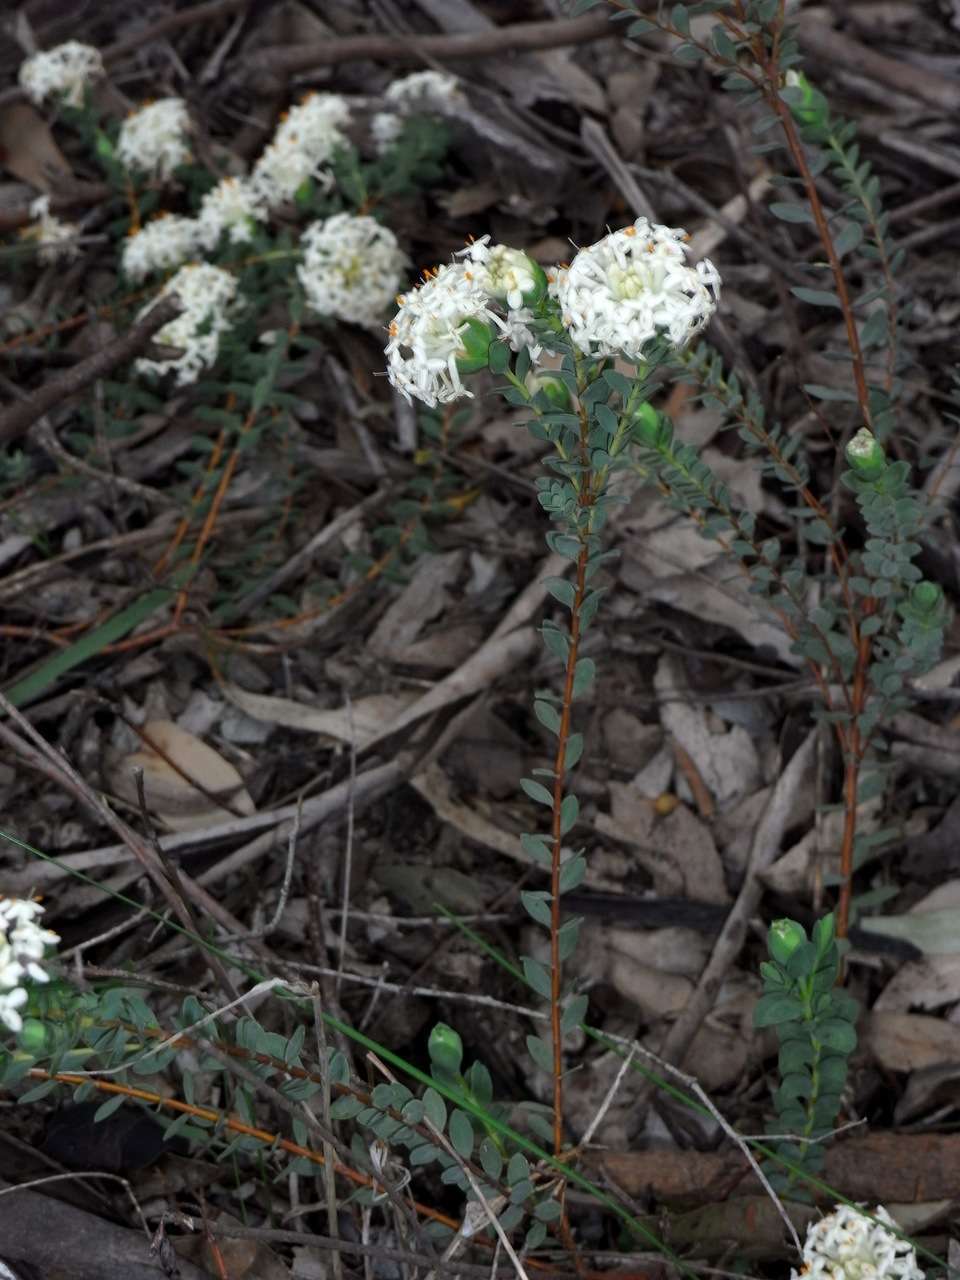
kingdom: Plantae
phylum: Tracheophyta
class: Magnoliopsida
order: Malvales
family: Thymelaeaceae
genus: Pimelea
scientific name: Pimelea linifolia
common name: Queen-of-the-bush
